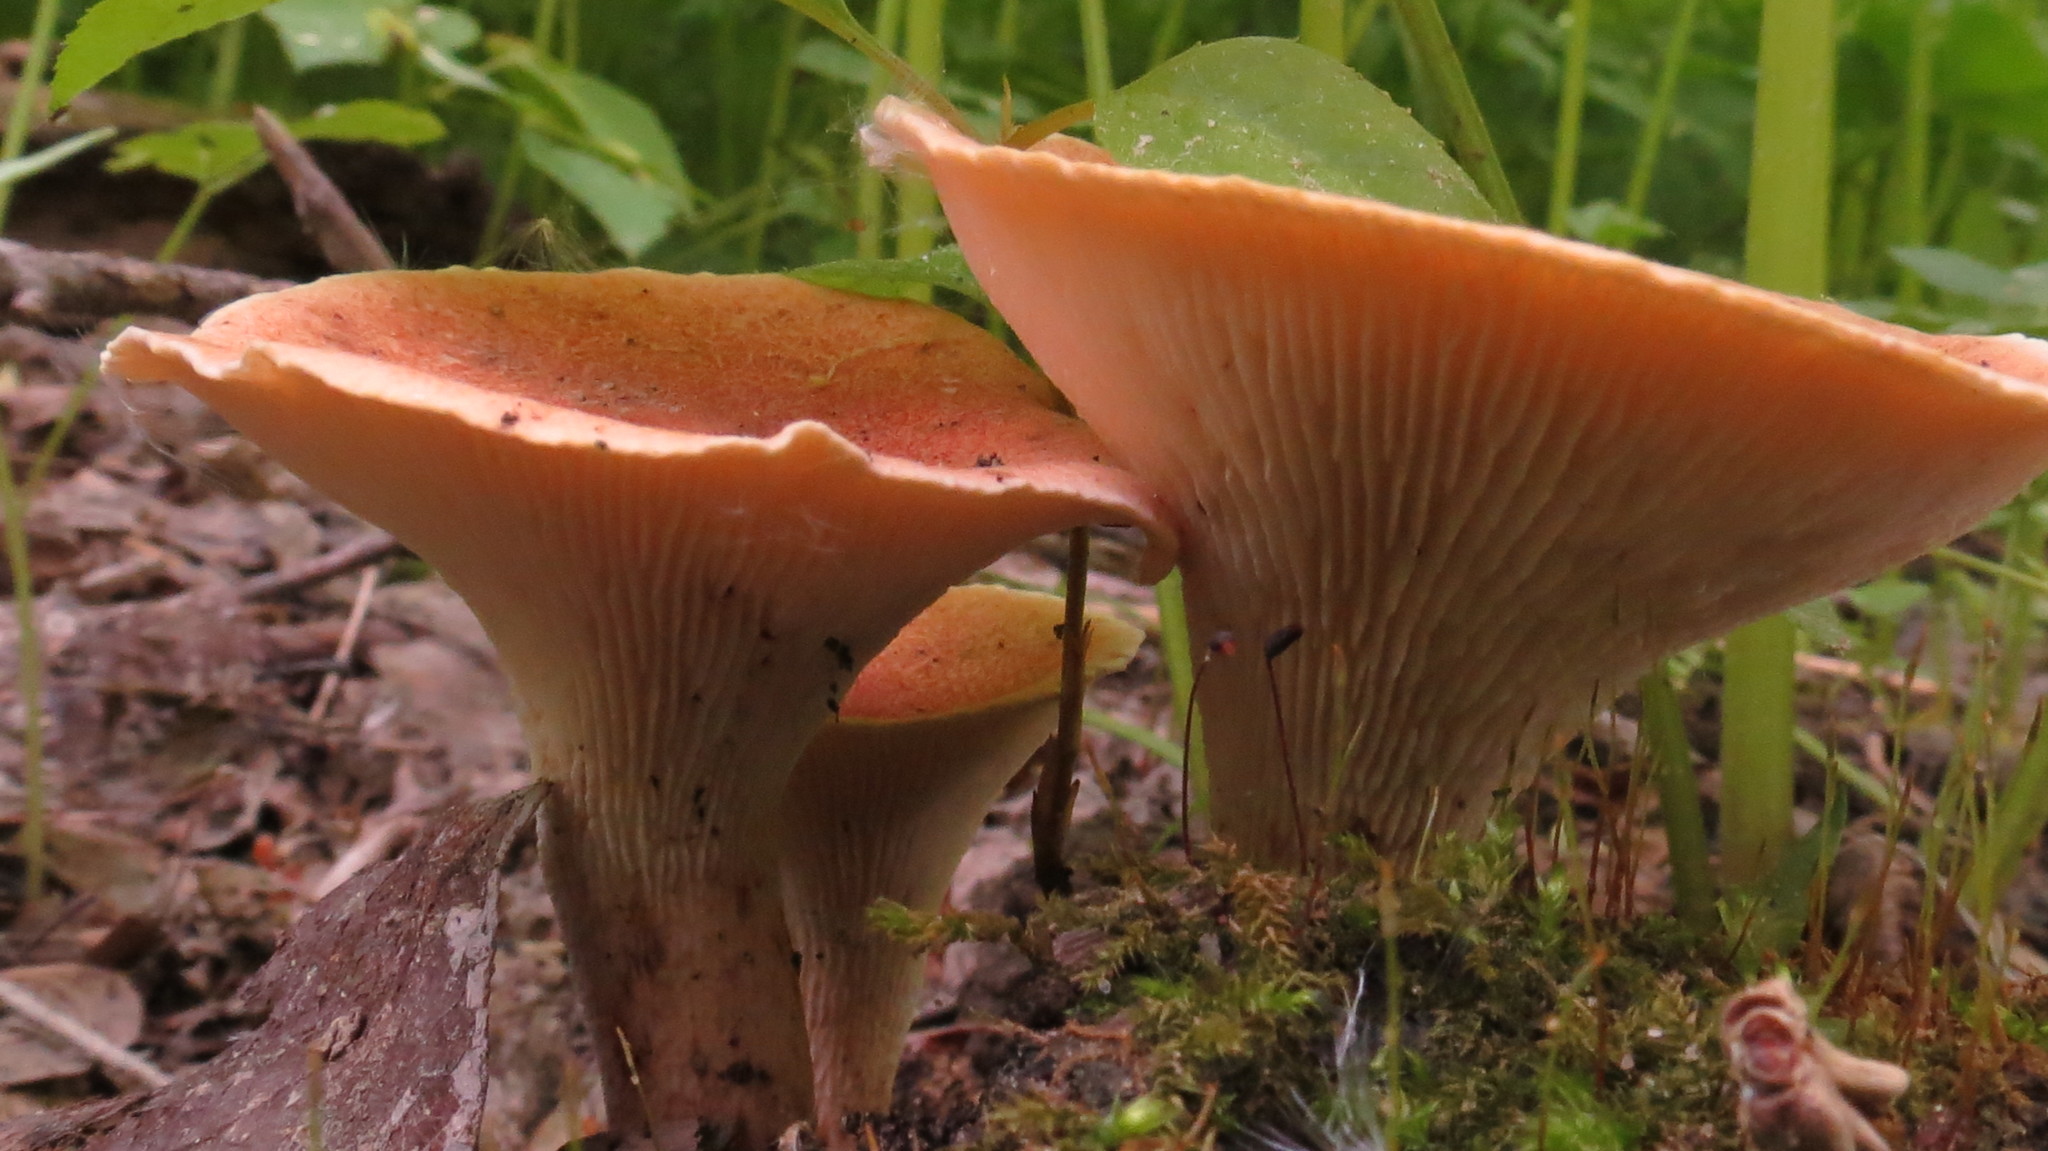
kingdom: Fungi
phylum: Basidiomycota
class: Agaricomycetes
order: Gloeophyllales
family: Gloeophyllaceae
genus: Neolentinus
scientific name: Neolentinus cyathiformis
